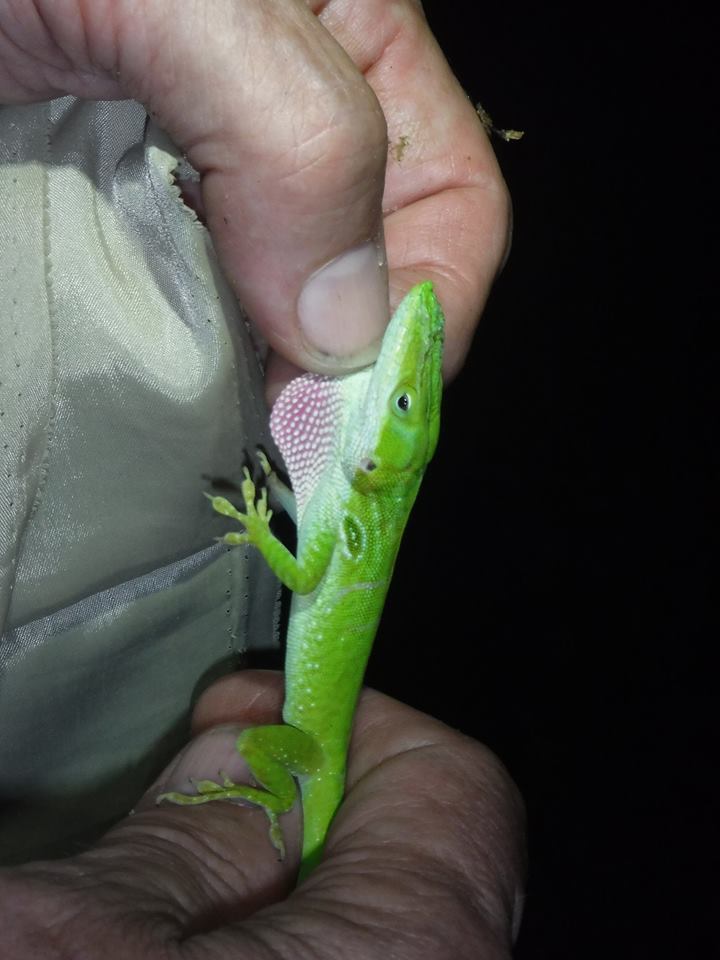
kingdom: Animalia
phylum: Chordata
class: Squamata
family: Dactyloidae
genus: Anolis
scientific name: Anolis porcatus
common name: Cuban green anole
